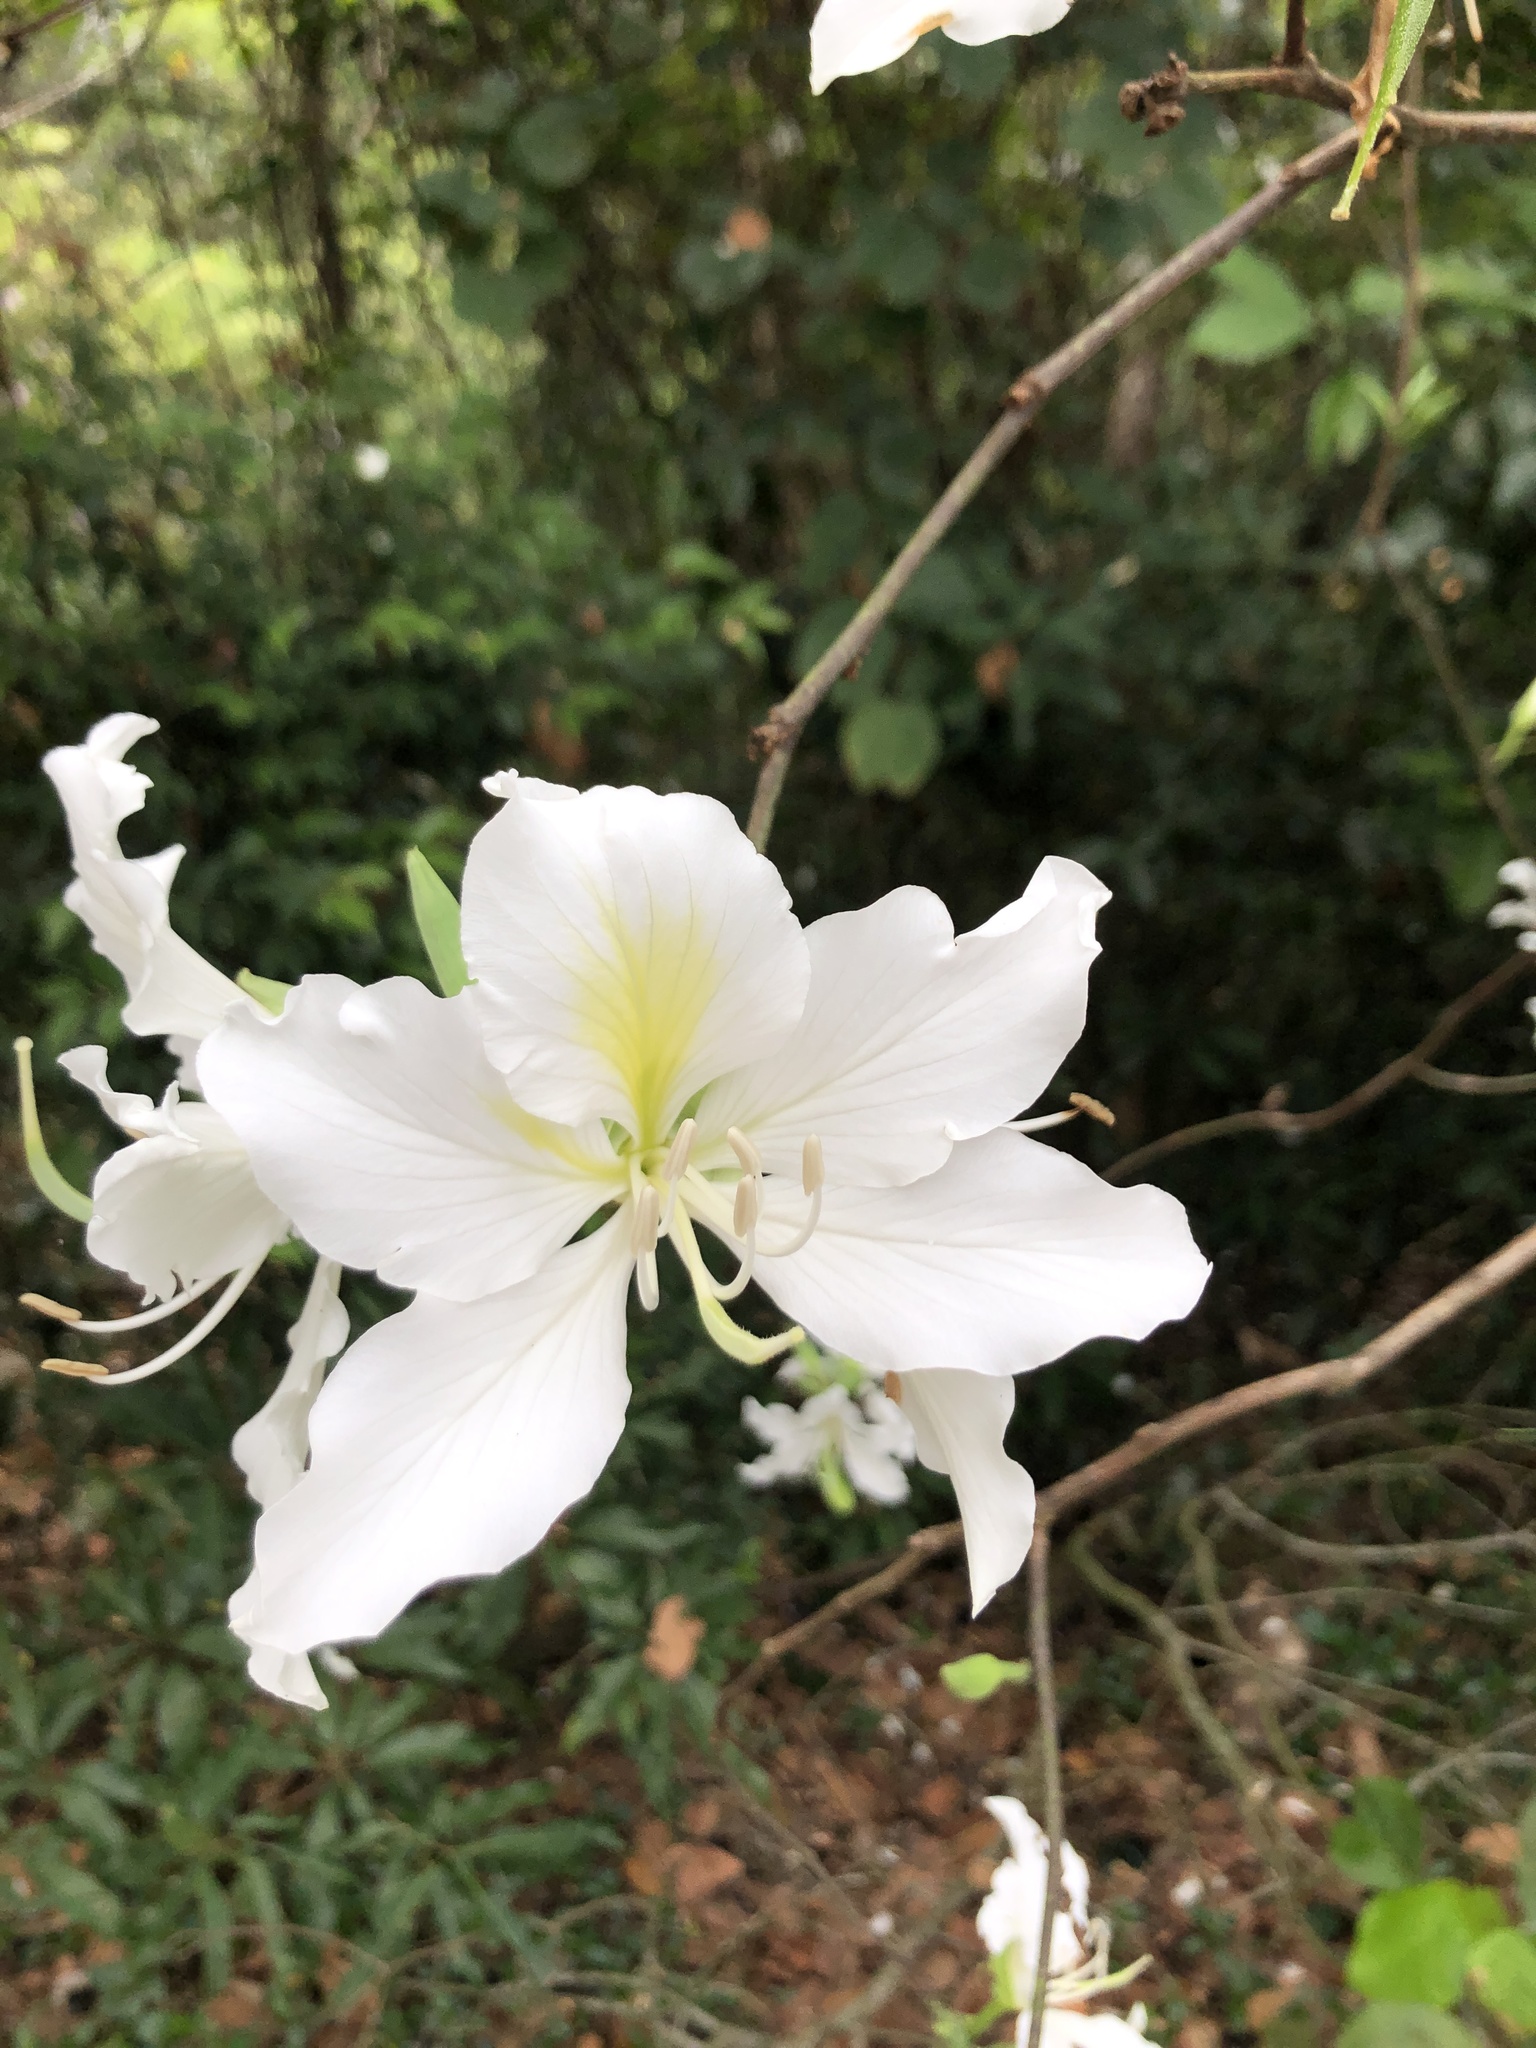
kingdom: Plantae
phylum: Tracheophyta
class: Magnoliopsida
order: Fabales
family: Fabaceae
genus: Bauhinia
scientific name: Bauhinia variegata
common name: Mountain ebony
